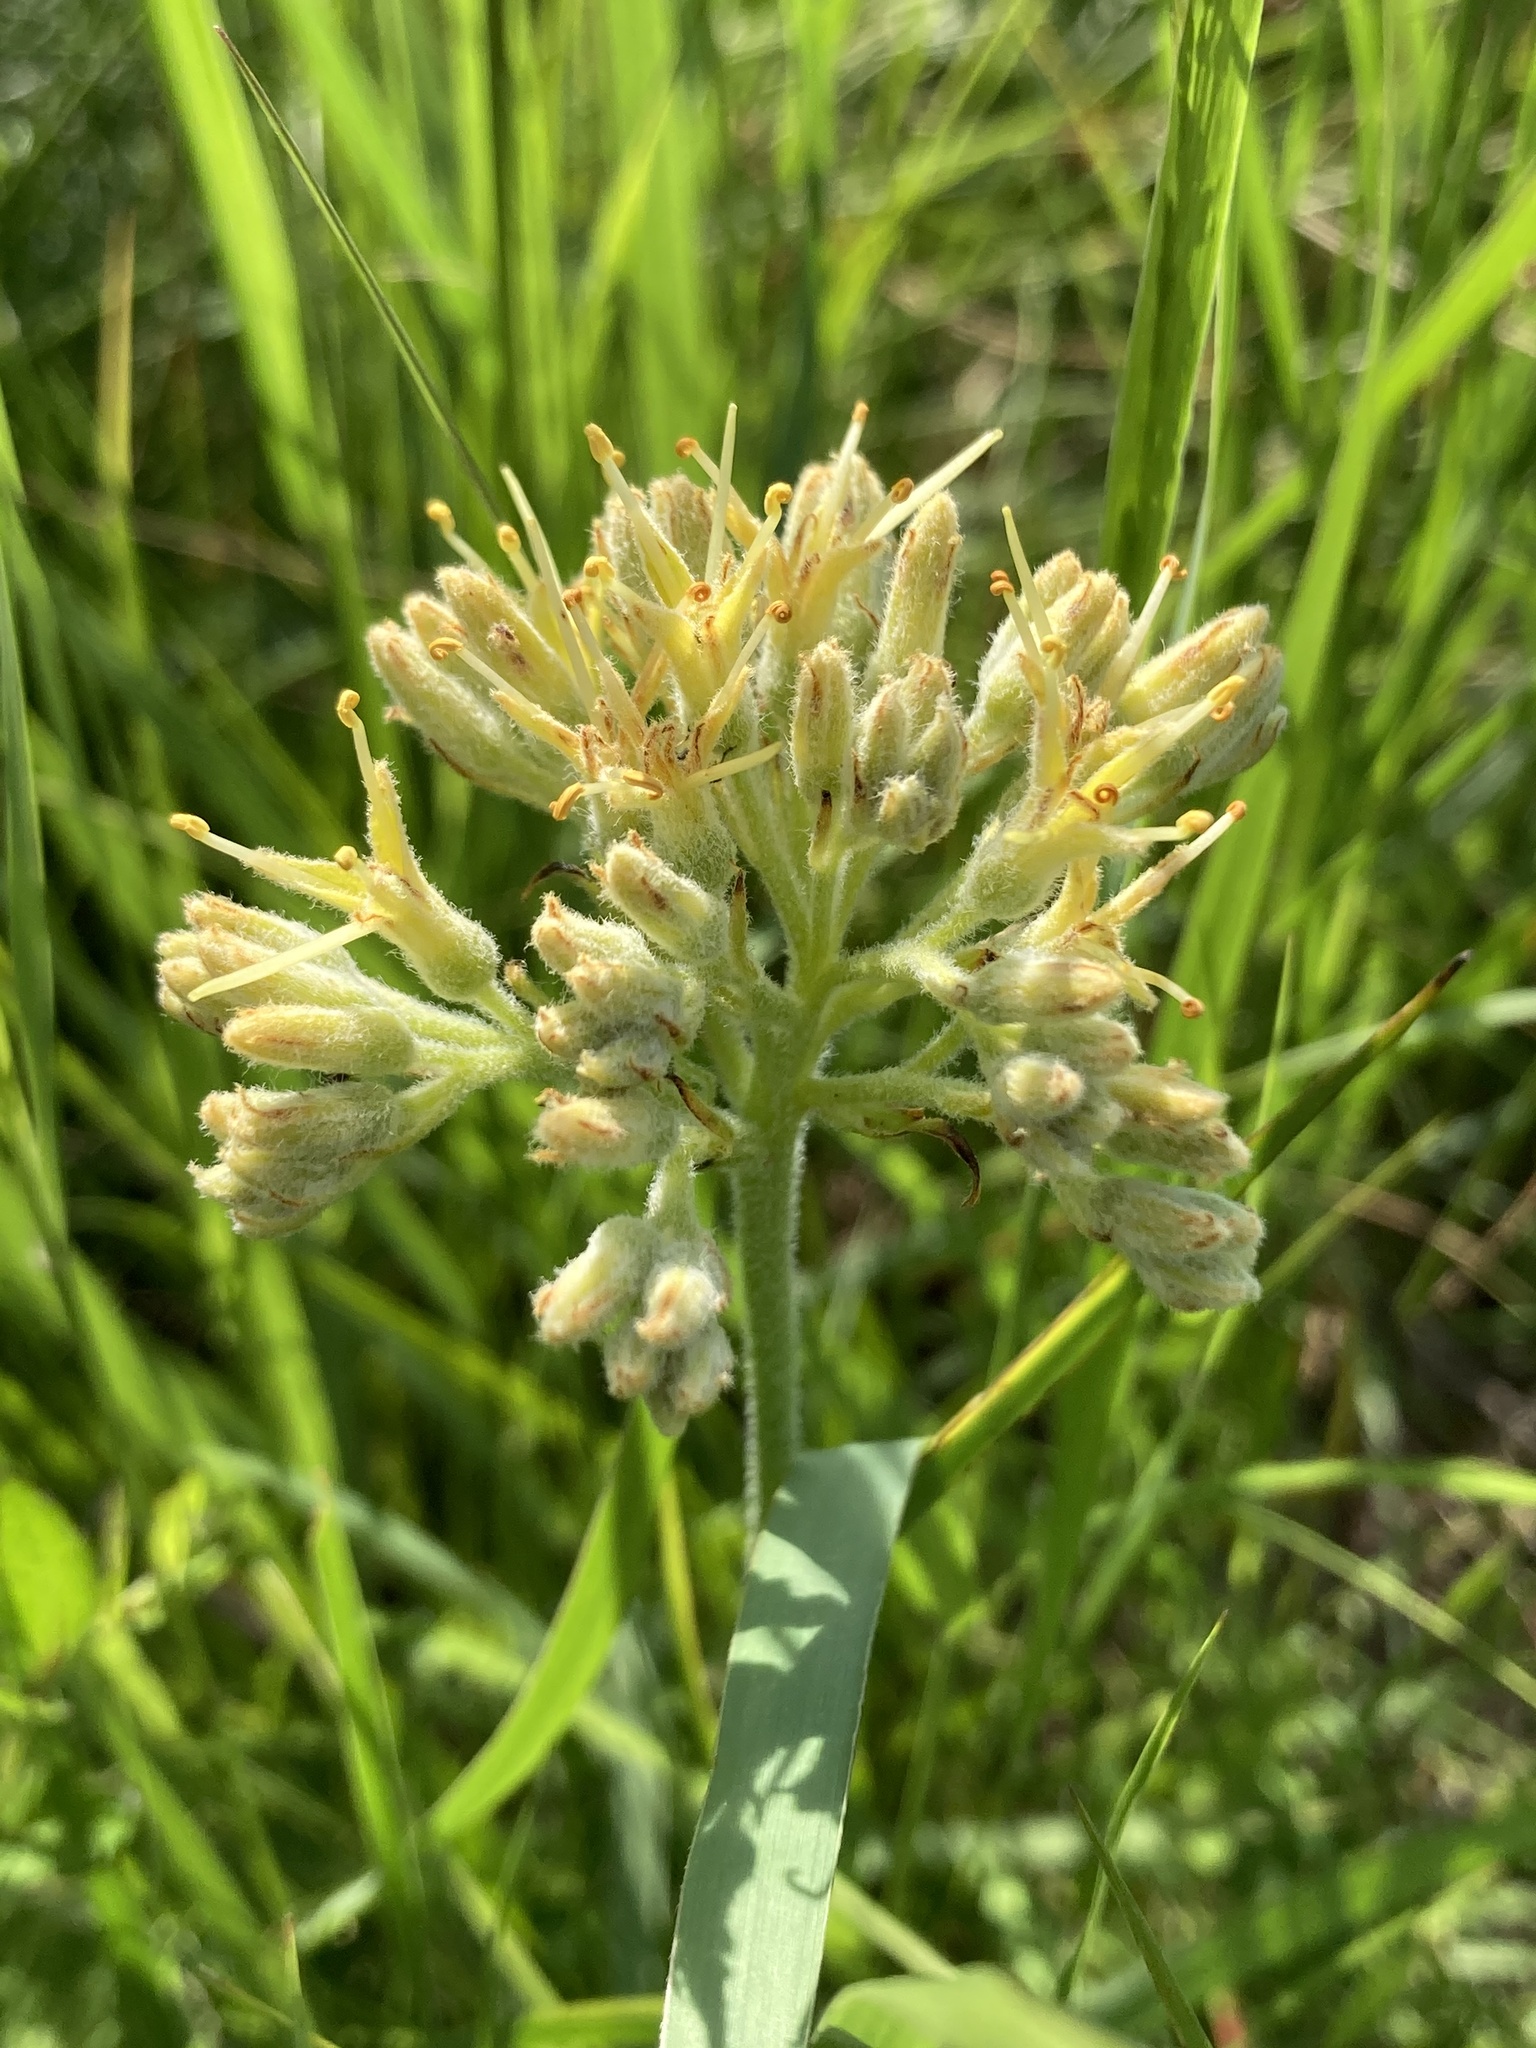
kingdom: Plantae
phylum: Tracheophyta
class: Liliopsida
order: Commelinales
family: Haemodoraceae
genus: Lachnanthes
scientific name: Lachnanthes caroliana
